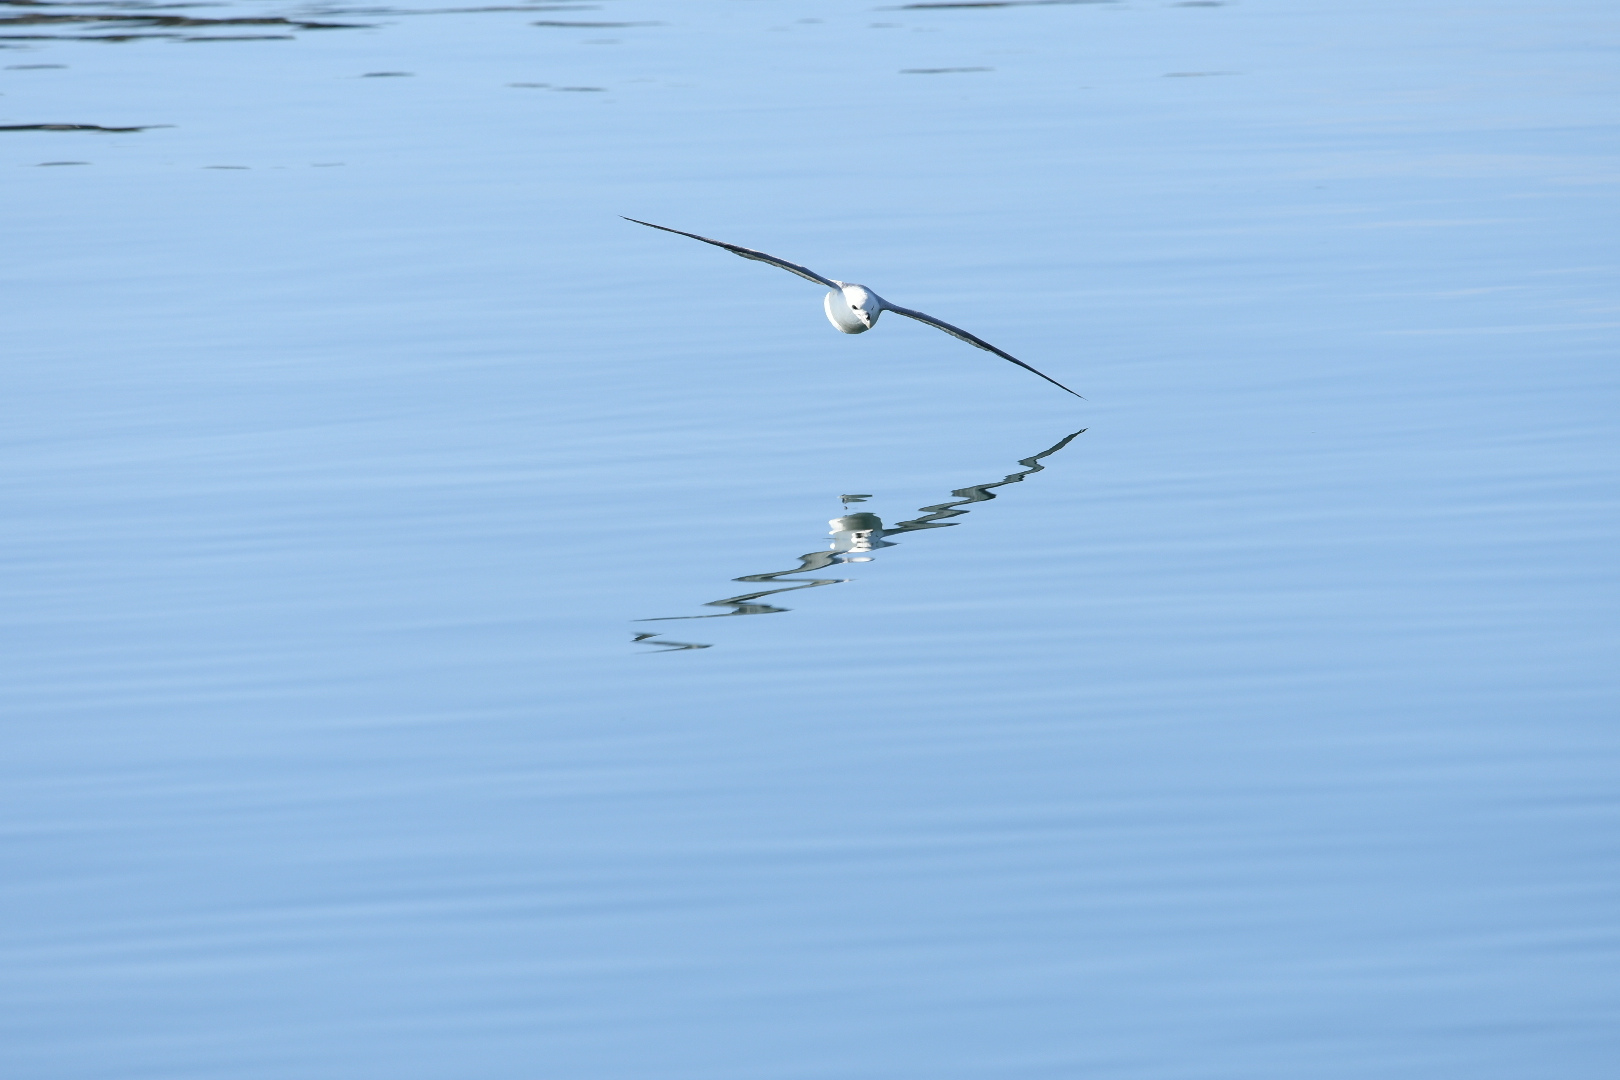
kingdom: Animalia
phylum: Chordata
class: Aves
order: Procellariiformes
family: Procellariidae
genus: Fulmarus
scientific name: Fulmarus glacialis
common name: Northern fulmar
